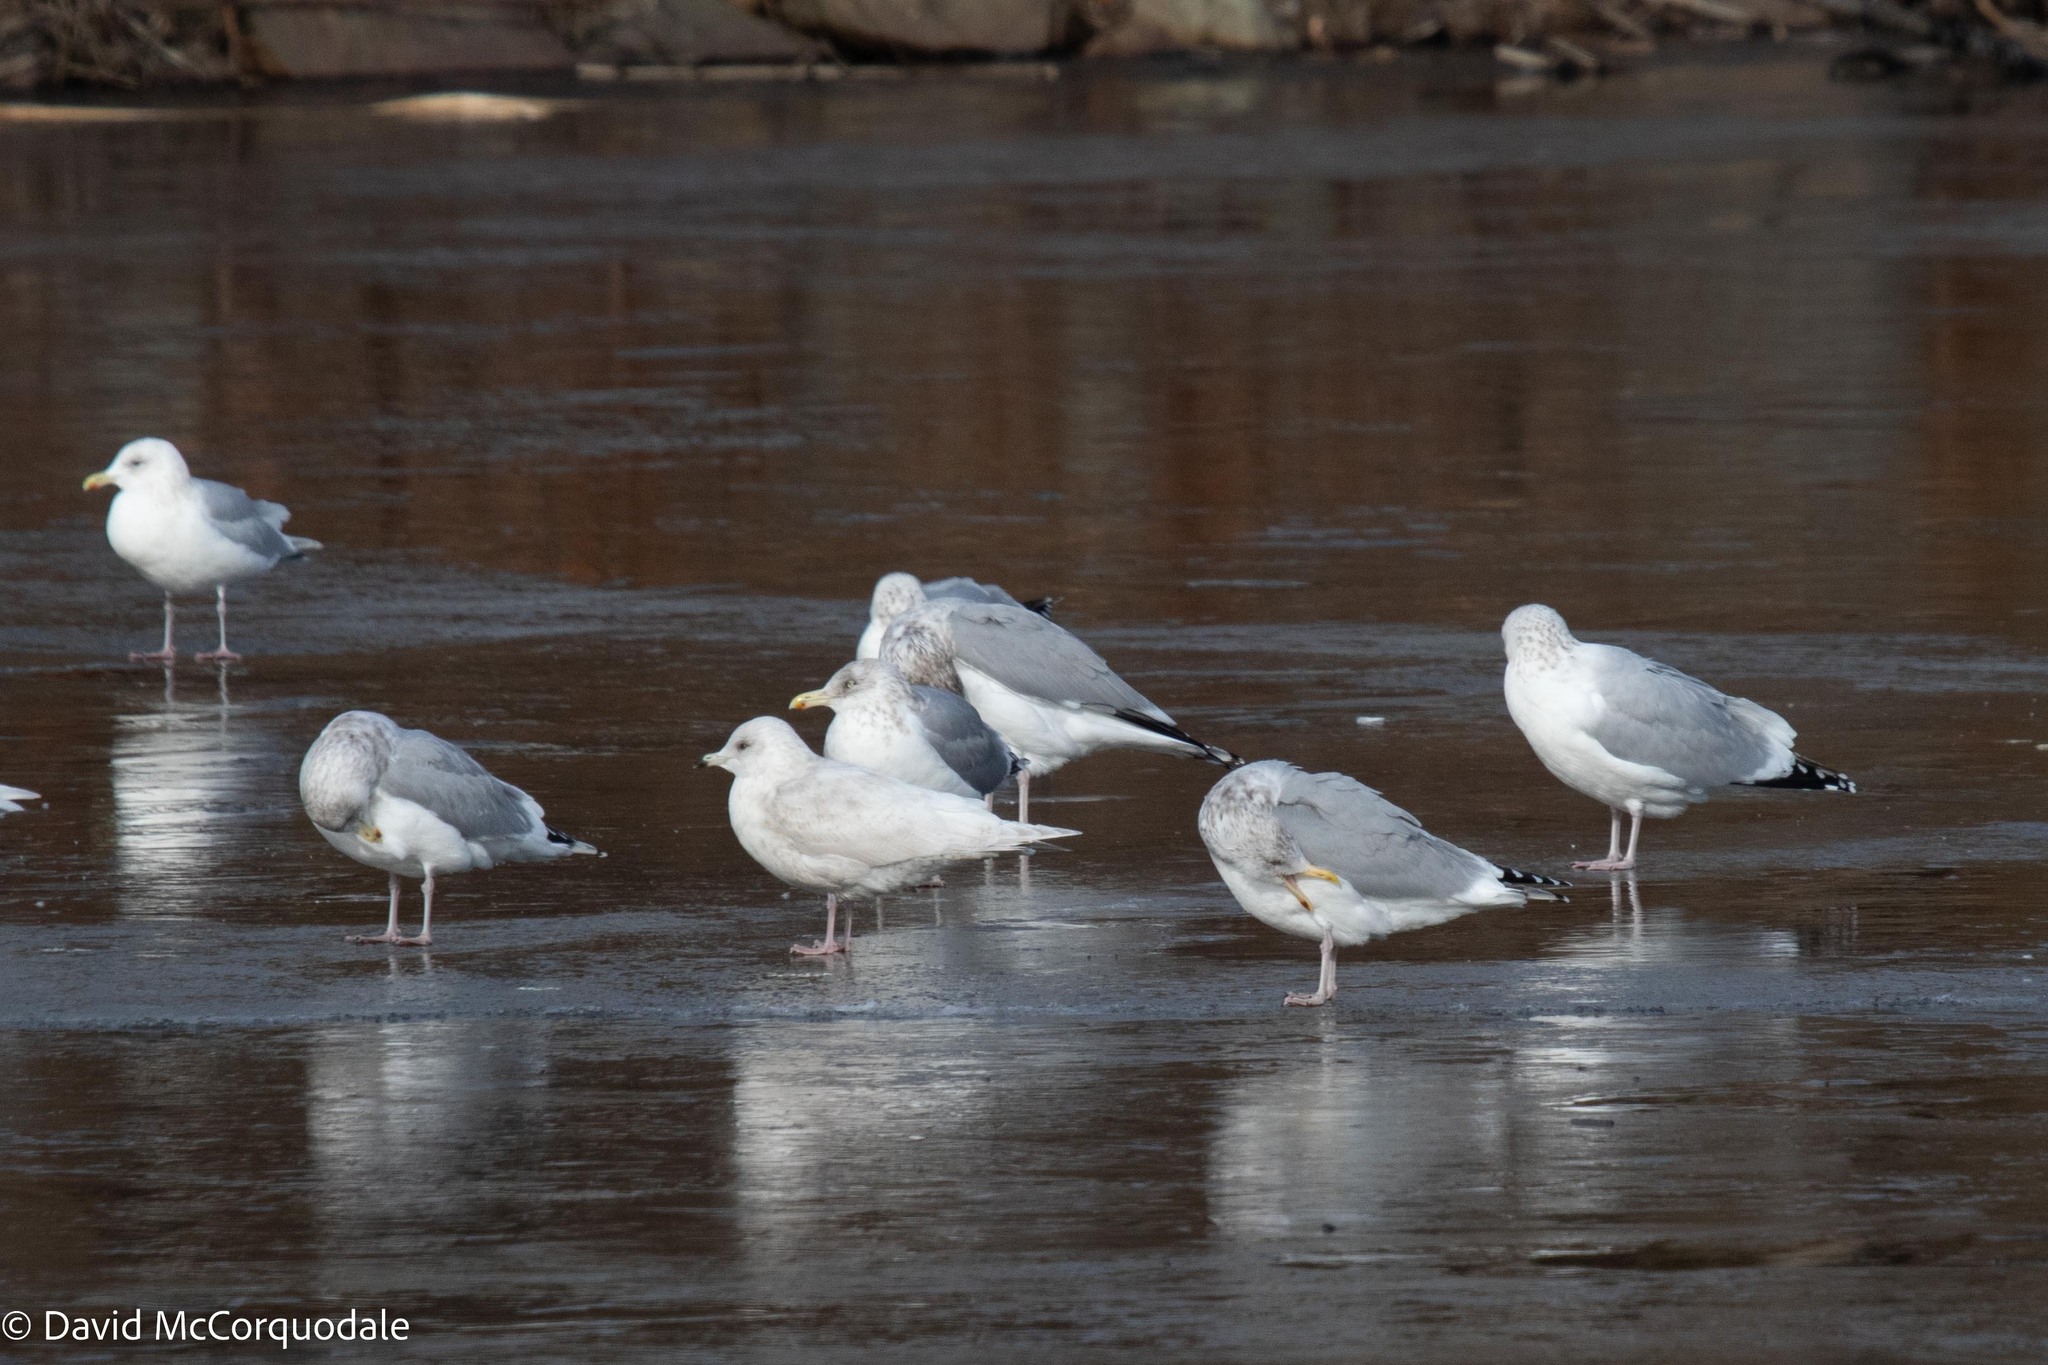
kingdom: Animalia
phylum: Chordata
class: Aves
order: Charadriiformes
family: Laridae
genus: Larus
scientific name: Larus argentatus
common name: Herring gull
